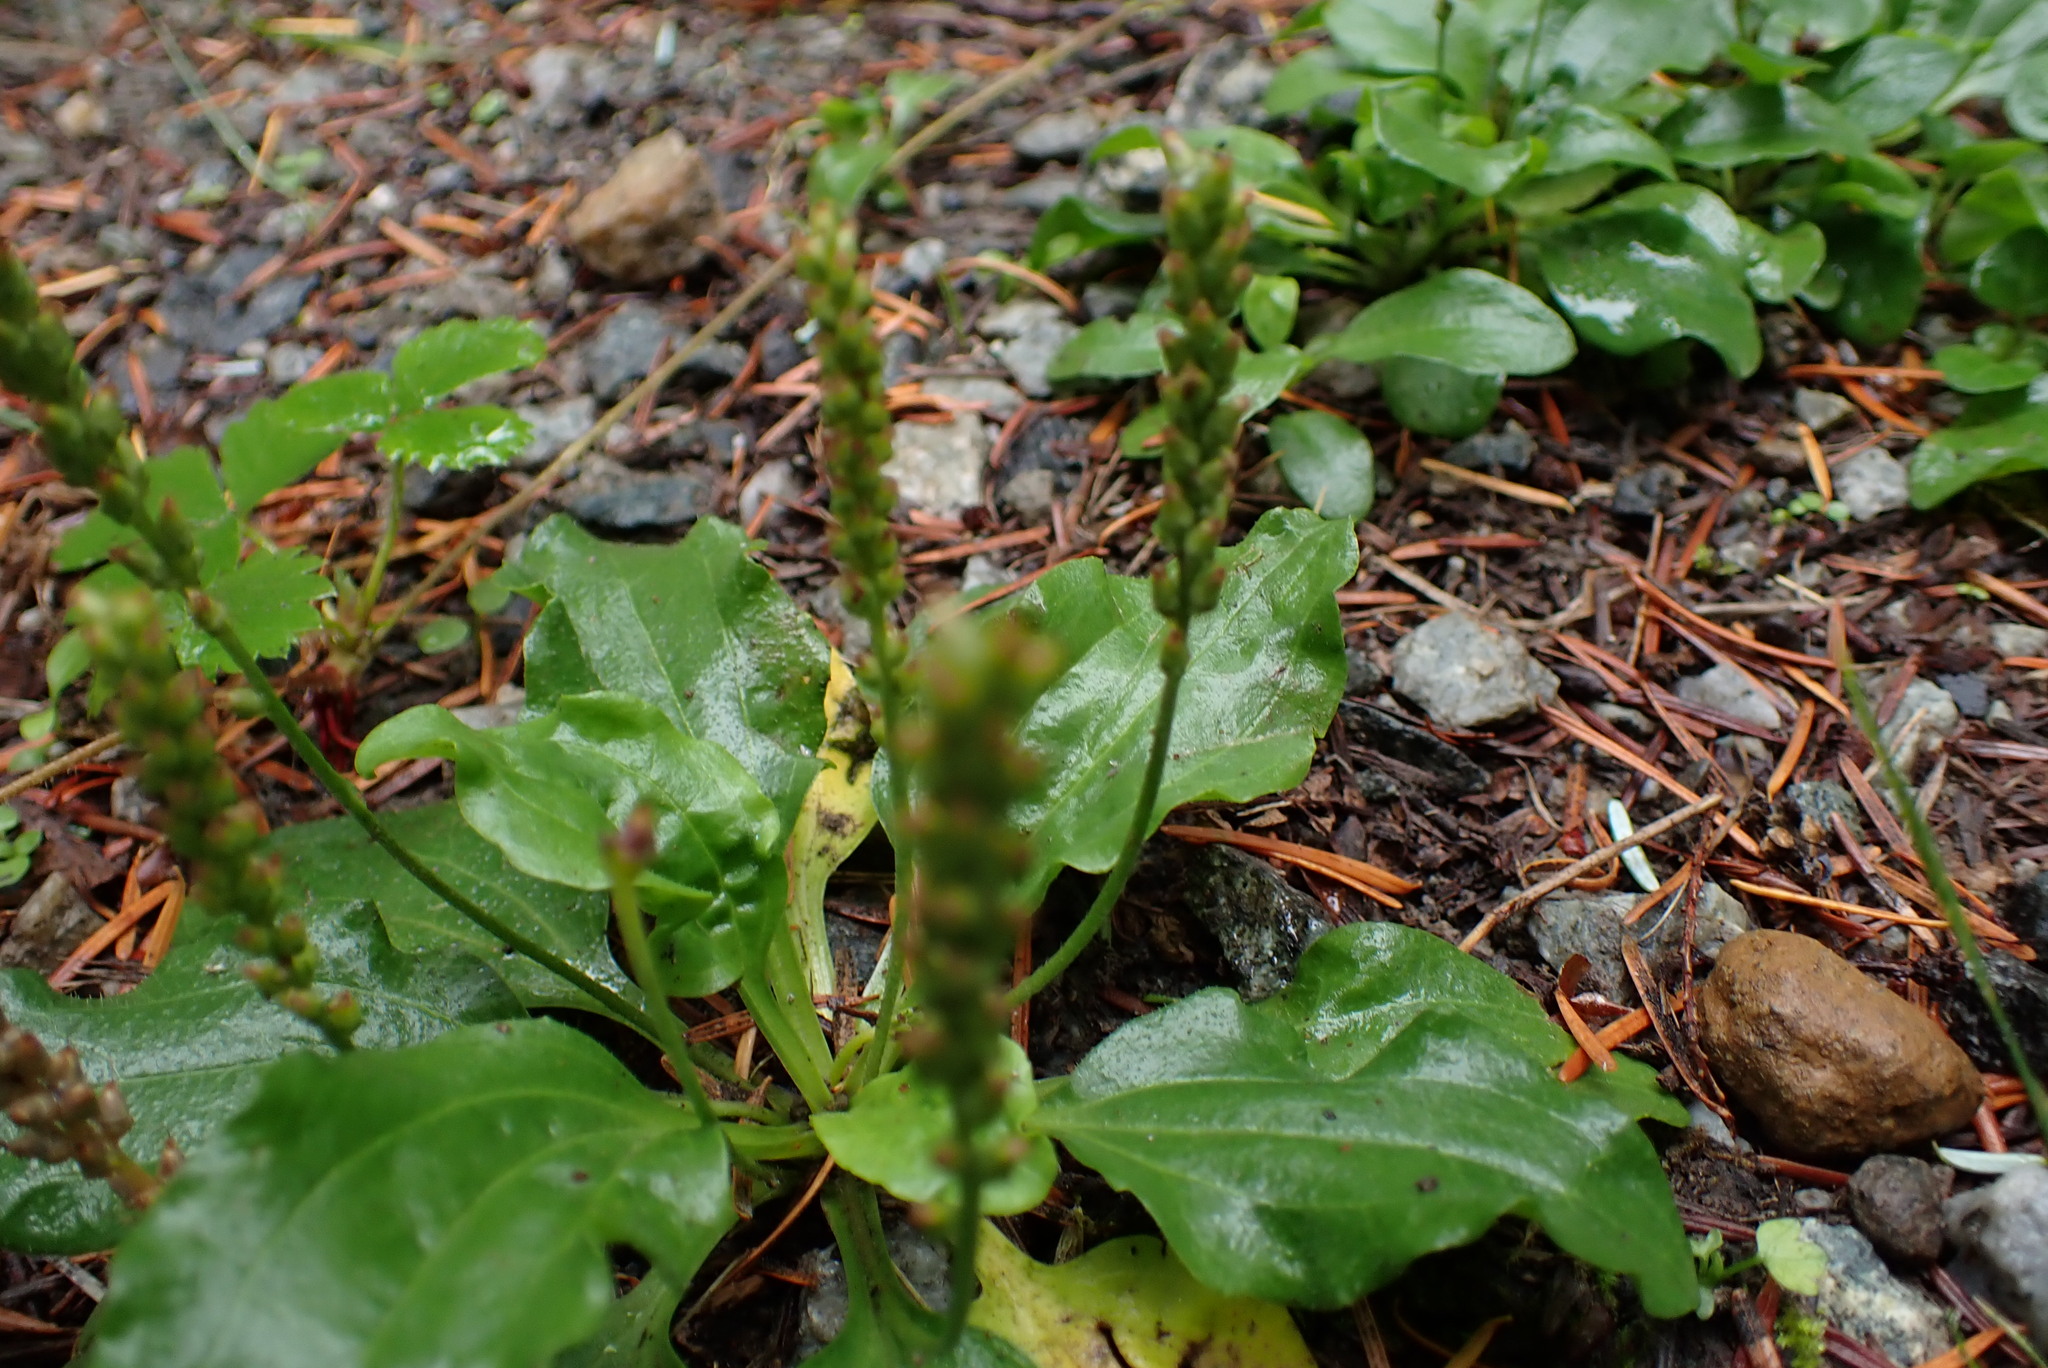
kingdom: Plantae
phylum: Tracheophyta
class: Magnoliopsida
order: Lamiales
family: Plantaginaceae
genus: Plantago
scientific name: Plantago major
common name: Common plantain
